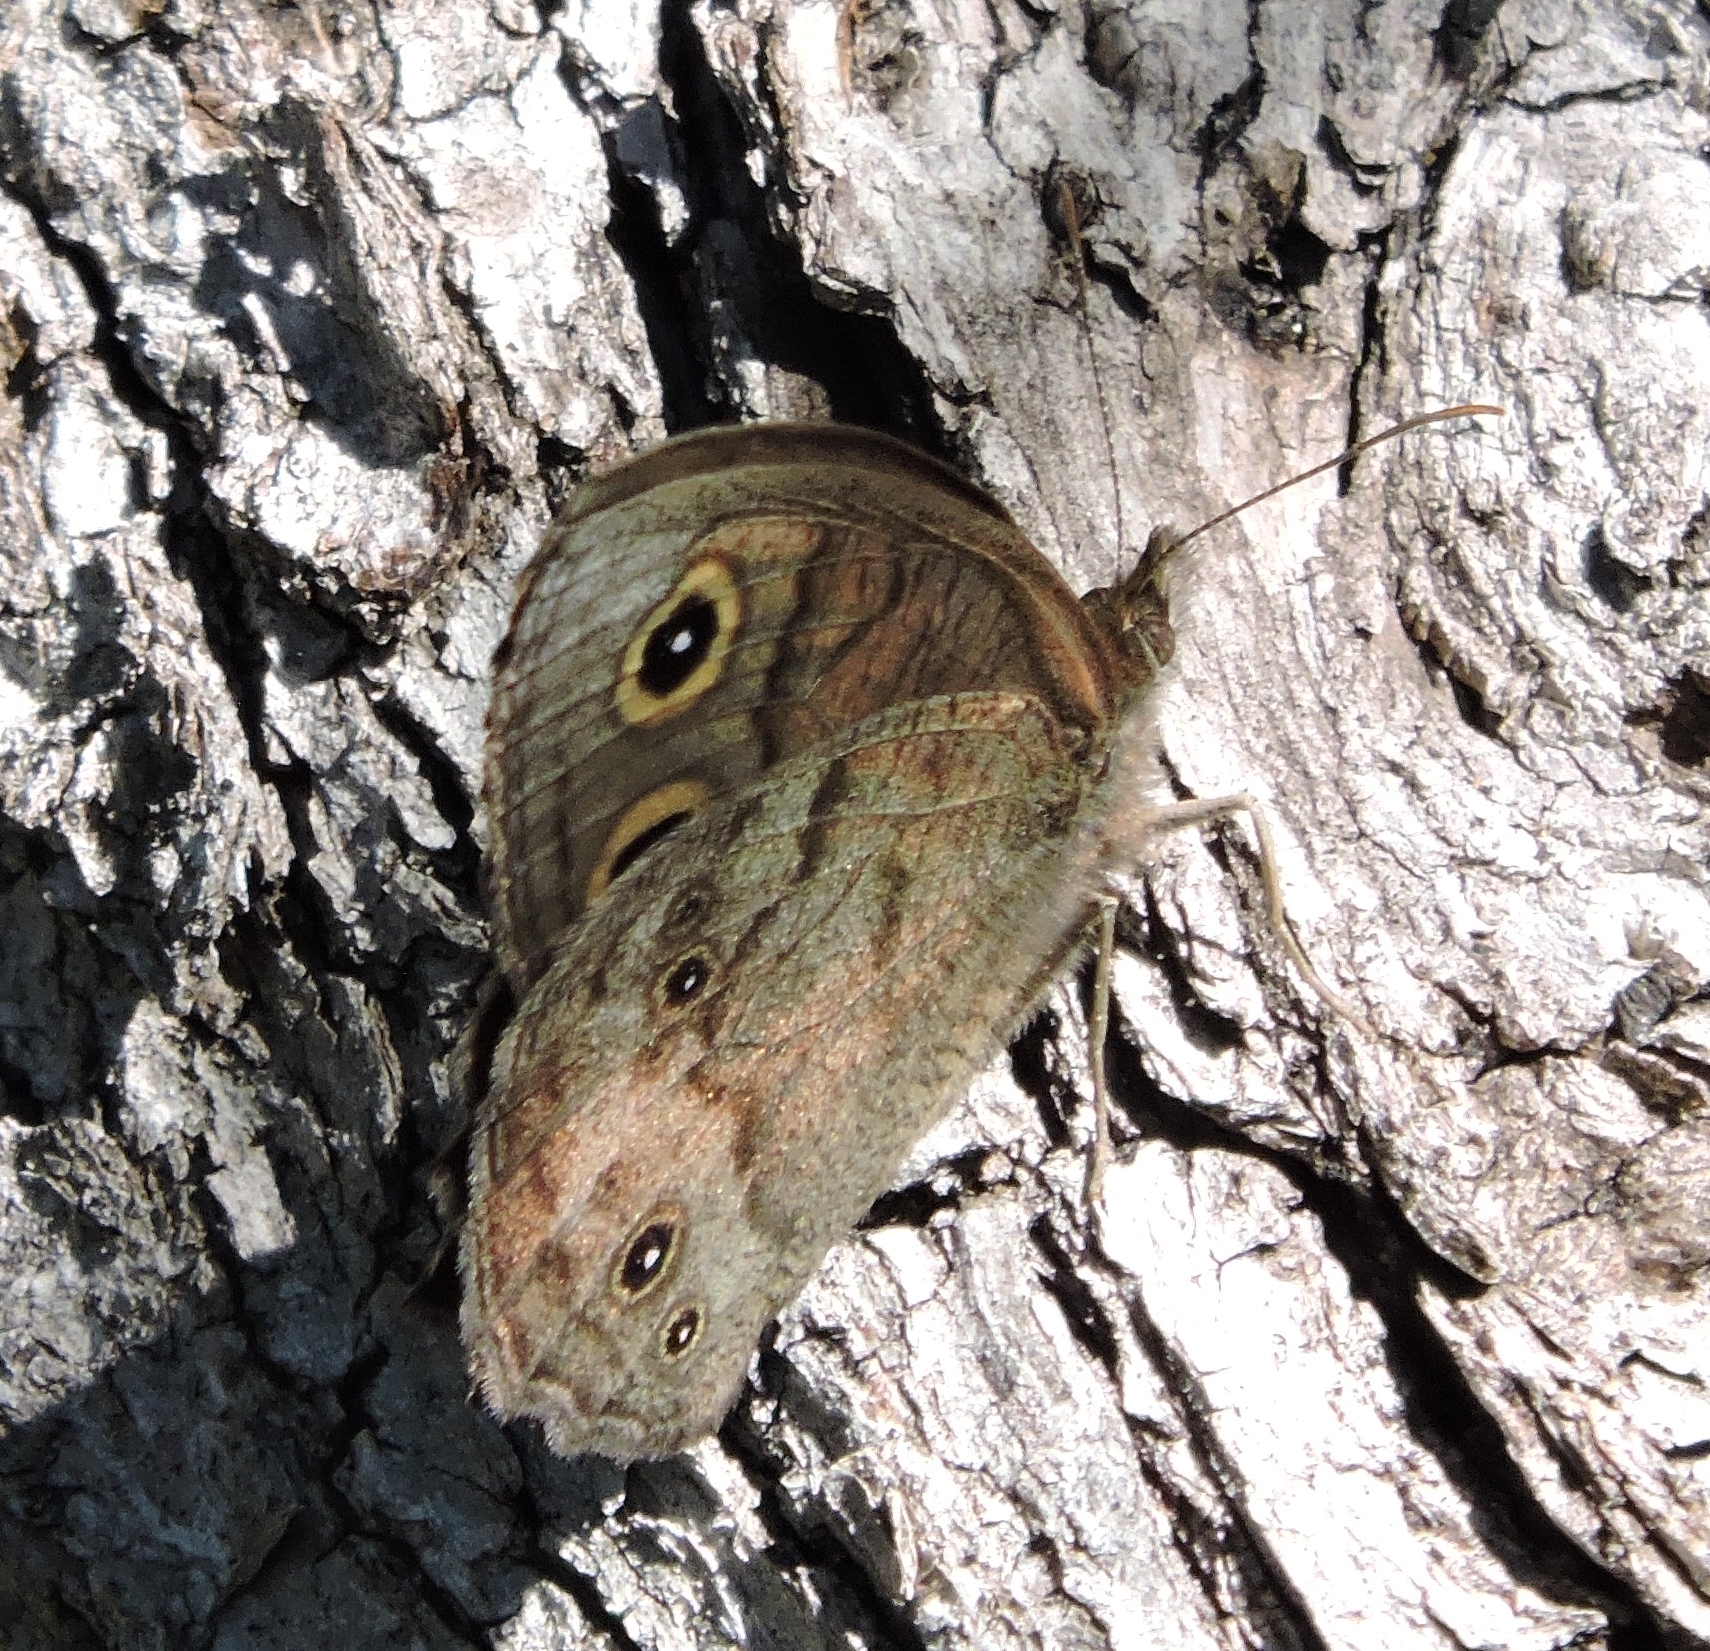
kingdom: Animalia
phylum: Arthropoda
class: Insecta
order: Lepidoptera
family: Nymphalidae
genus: Cercyonis
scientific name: Cercyonis pegala
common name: Common wood-nymph
